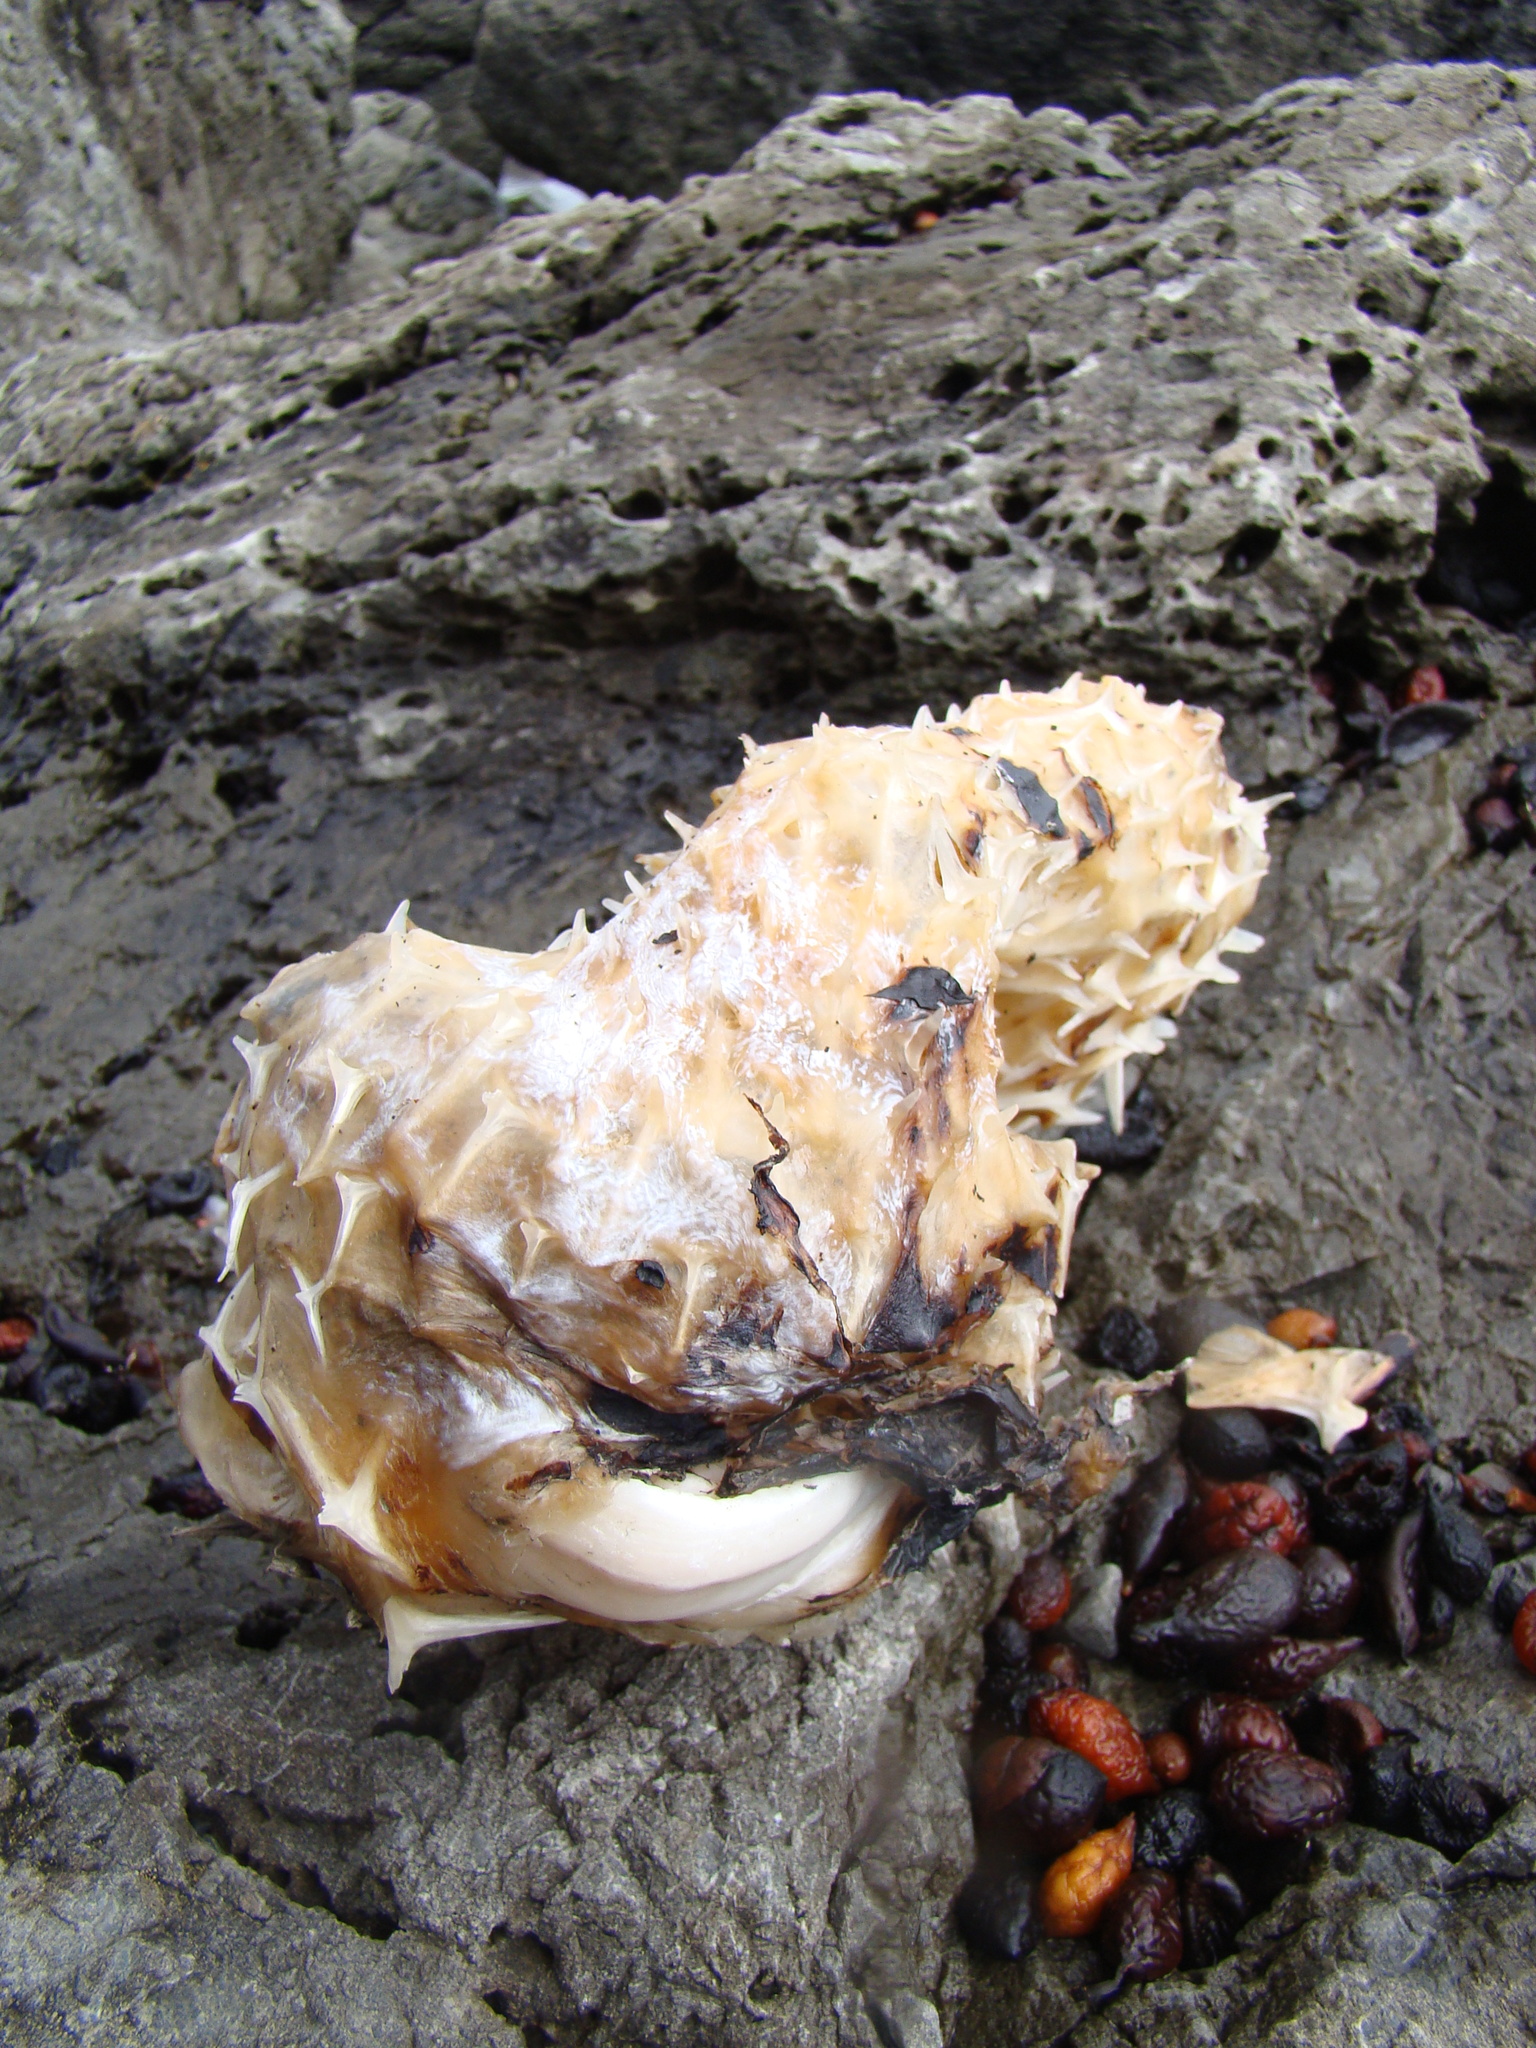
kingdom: Animalia
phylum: Chordata
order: Tetraodontiformes
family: Diodontidae
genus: Allomycterus
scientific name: Allomycterus pilatus
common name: No common name
